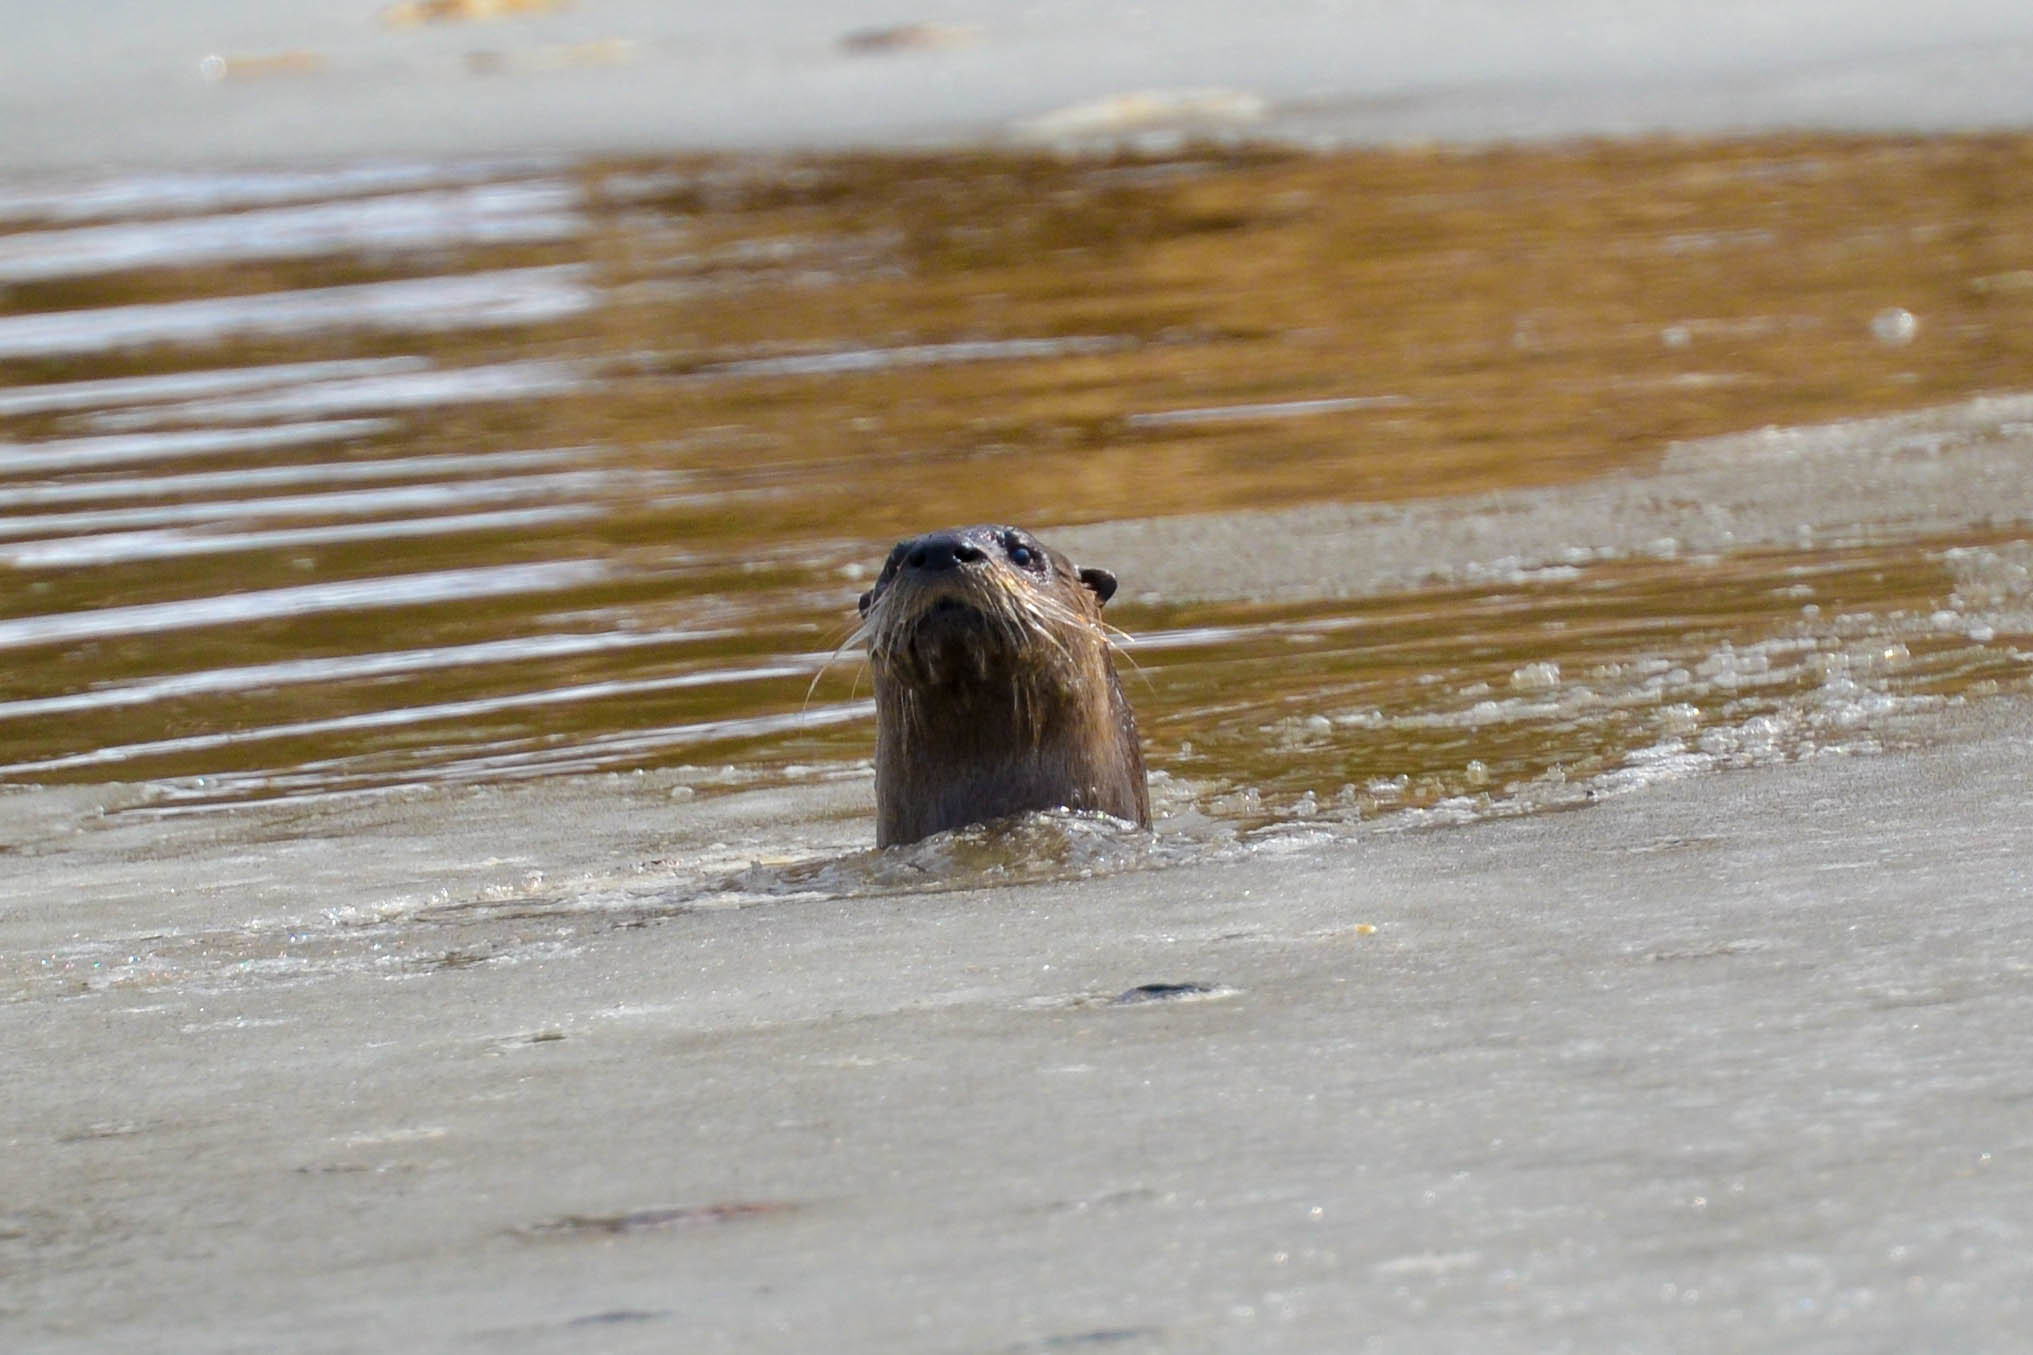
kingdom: Animalia
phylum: Chordata
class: Mammalia
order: Carnivora
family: Mustelidae
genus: Lontra
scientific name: Lontra canadensis
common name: North american river otter
